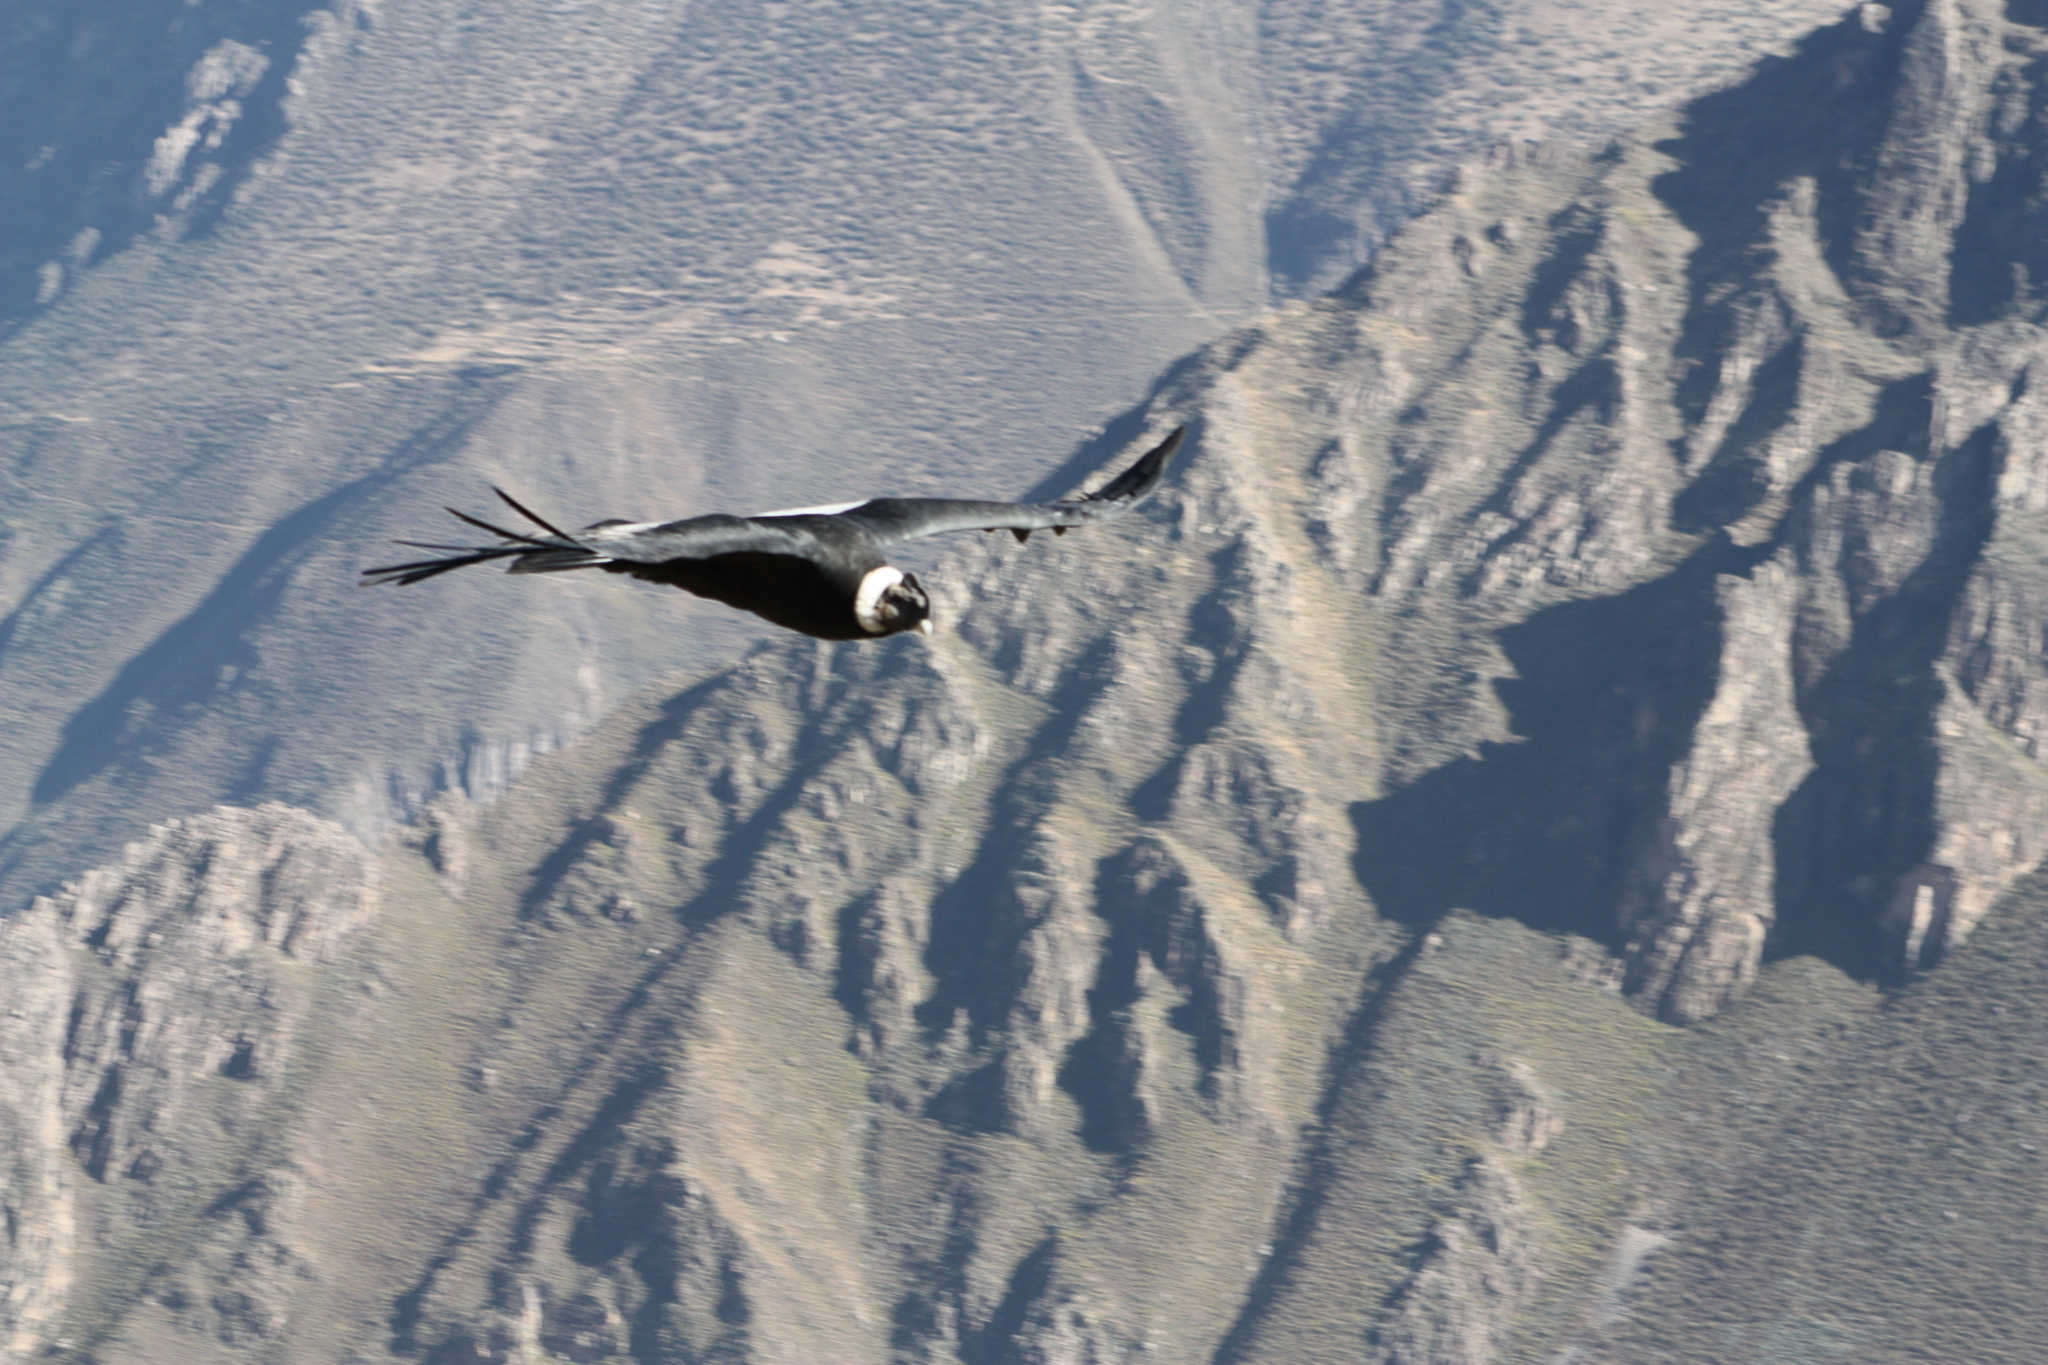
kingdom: Animalia
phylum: Chordata
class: Aves
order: Accipitriformes
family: Cathartidae
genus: Vultur
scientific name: Vultur gryphus
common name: Andean condor
